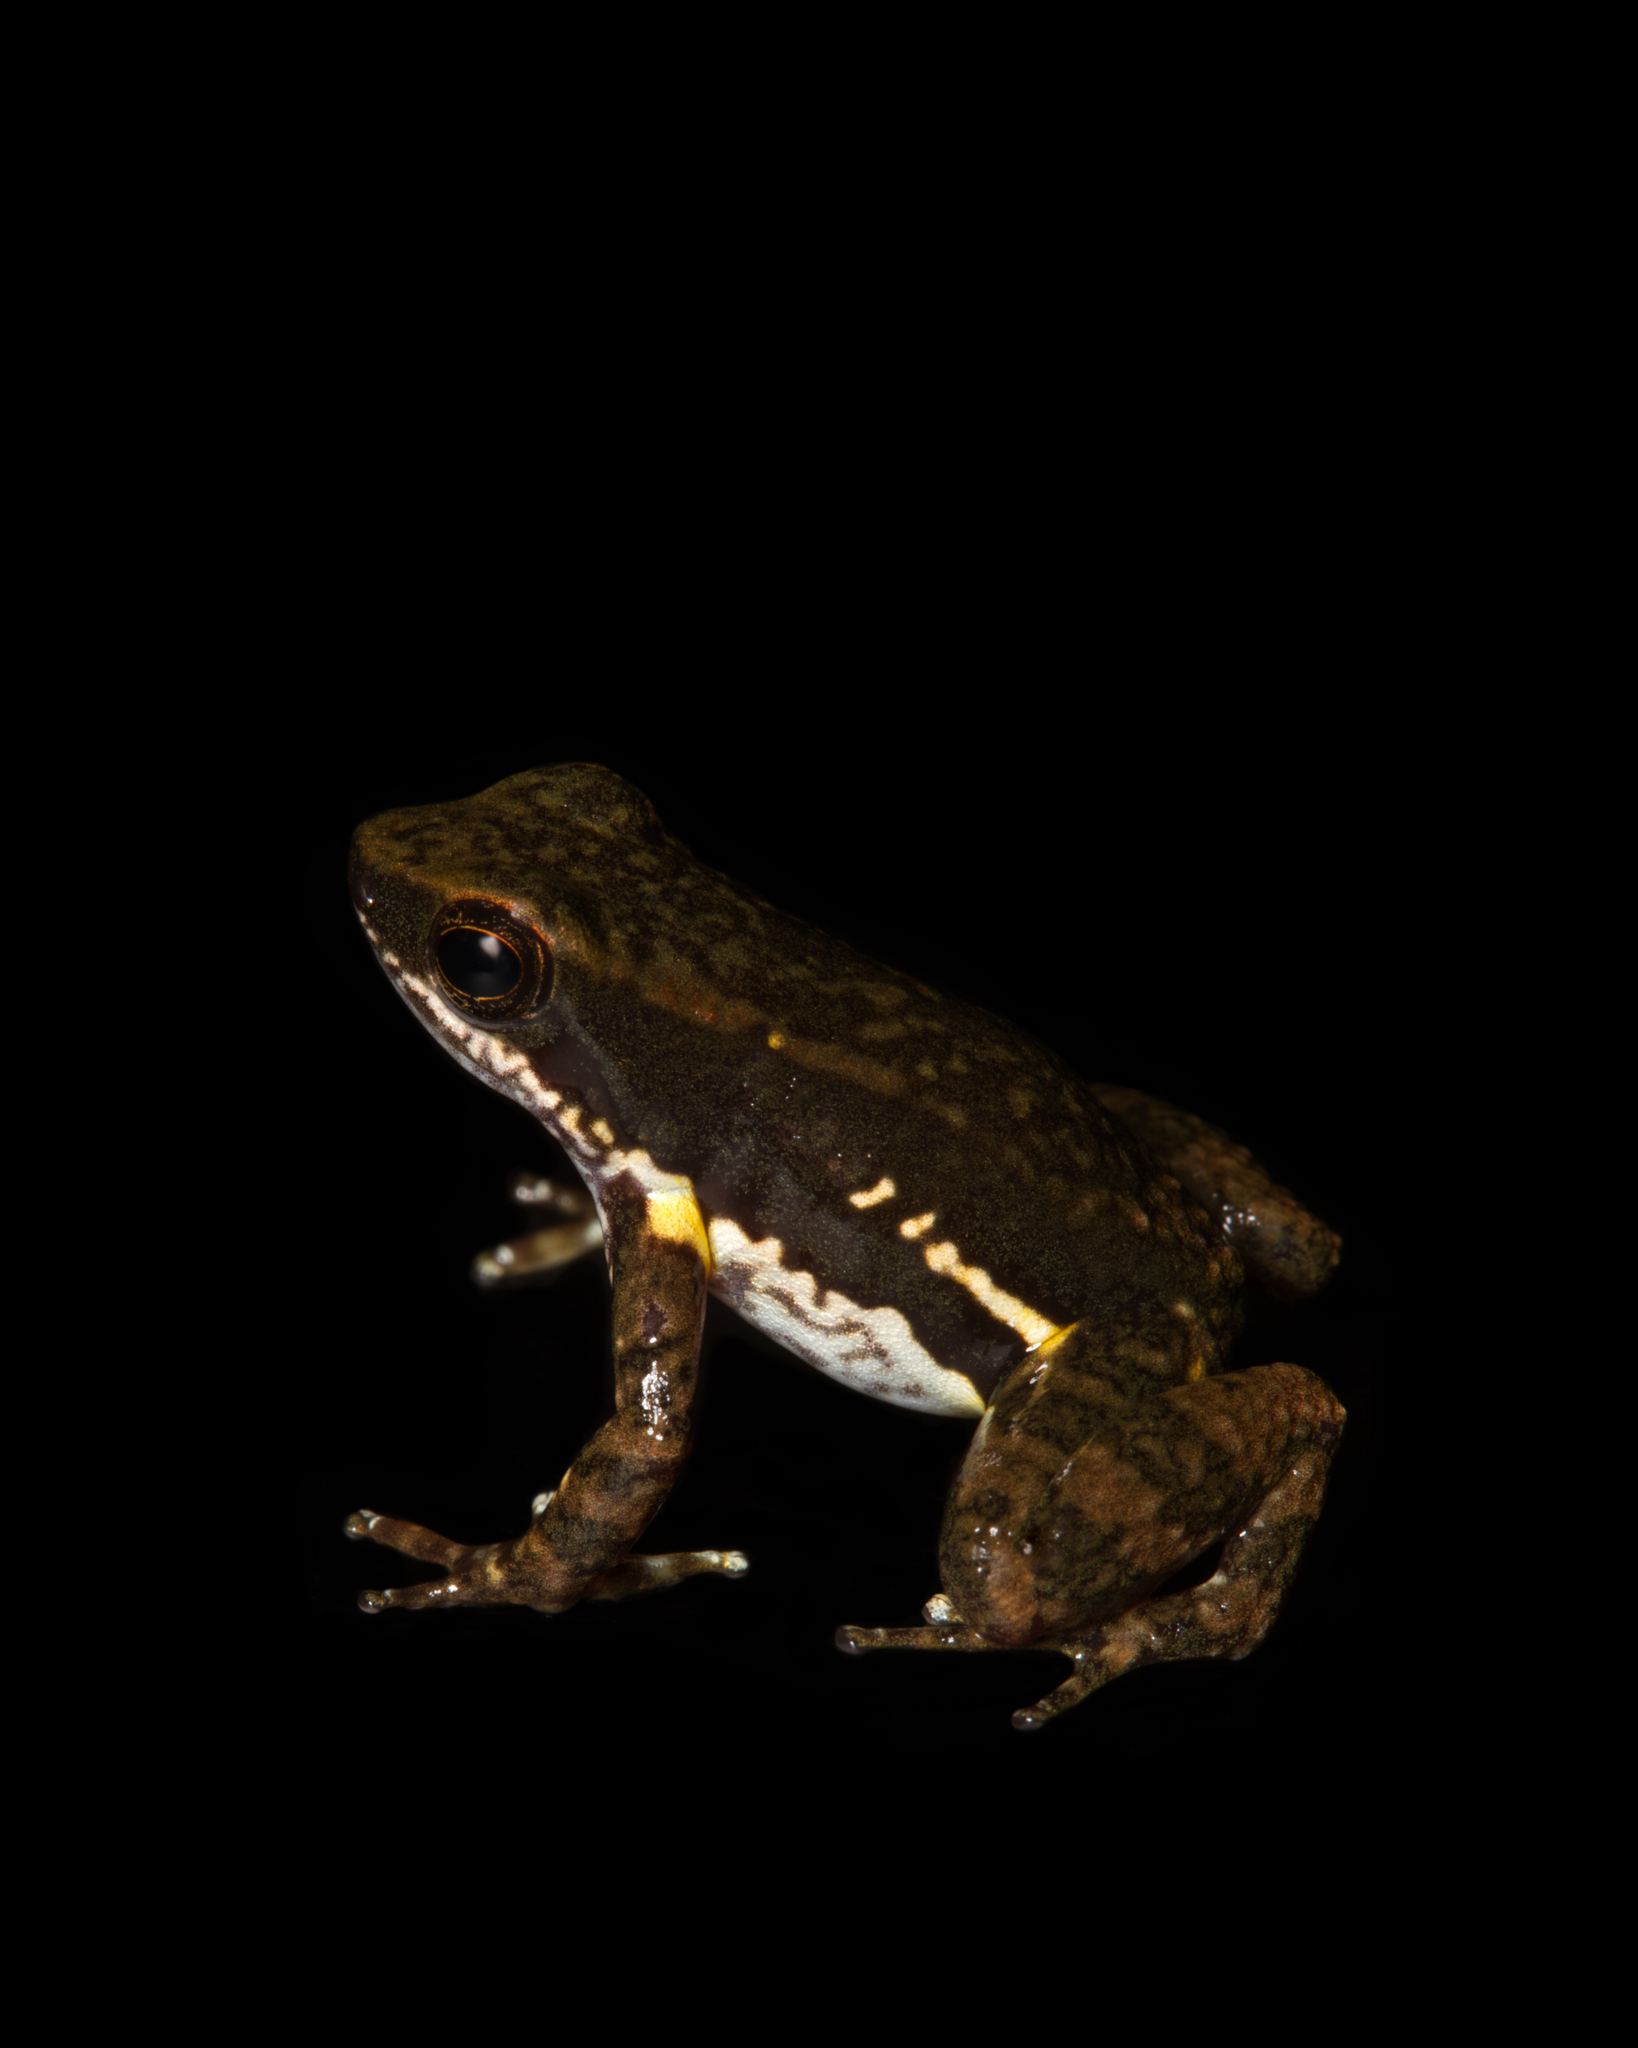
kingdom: Animalia
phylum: Chordata
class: Amphibia
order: Anura
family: Dendrobatidae
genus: Colostethus
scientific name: Colostethus panamansis
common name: Panama rocket frog
